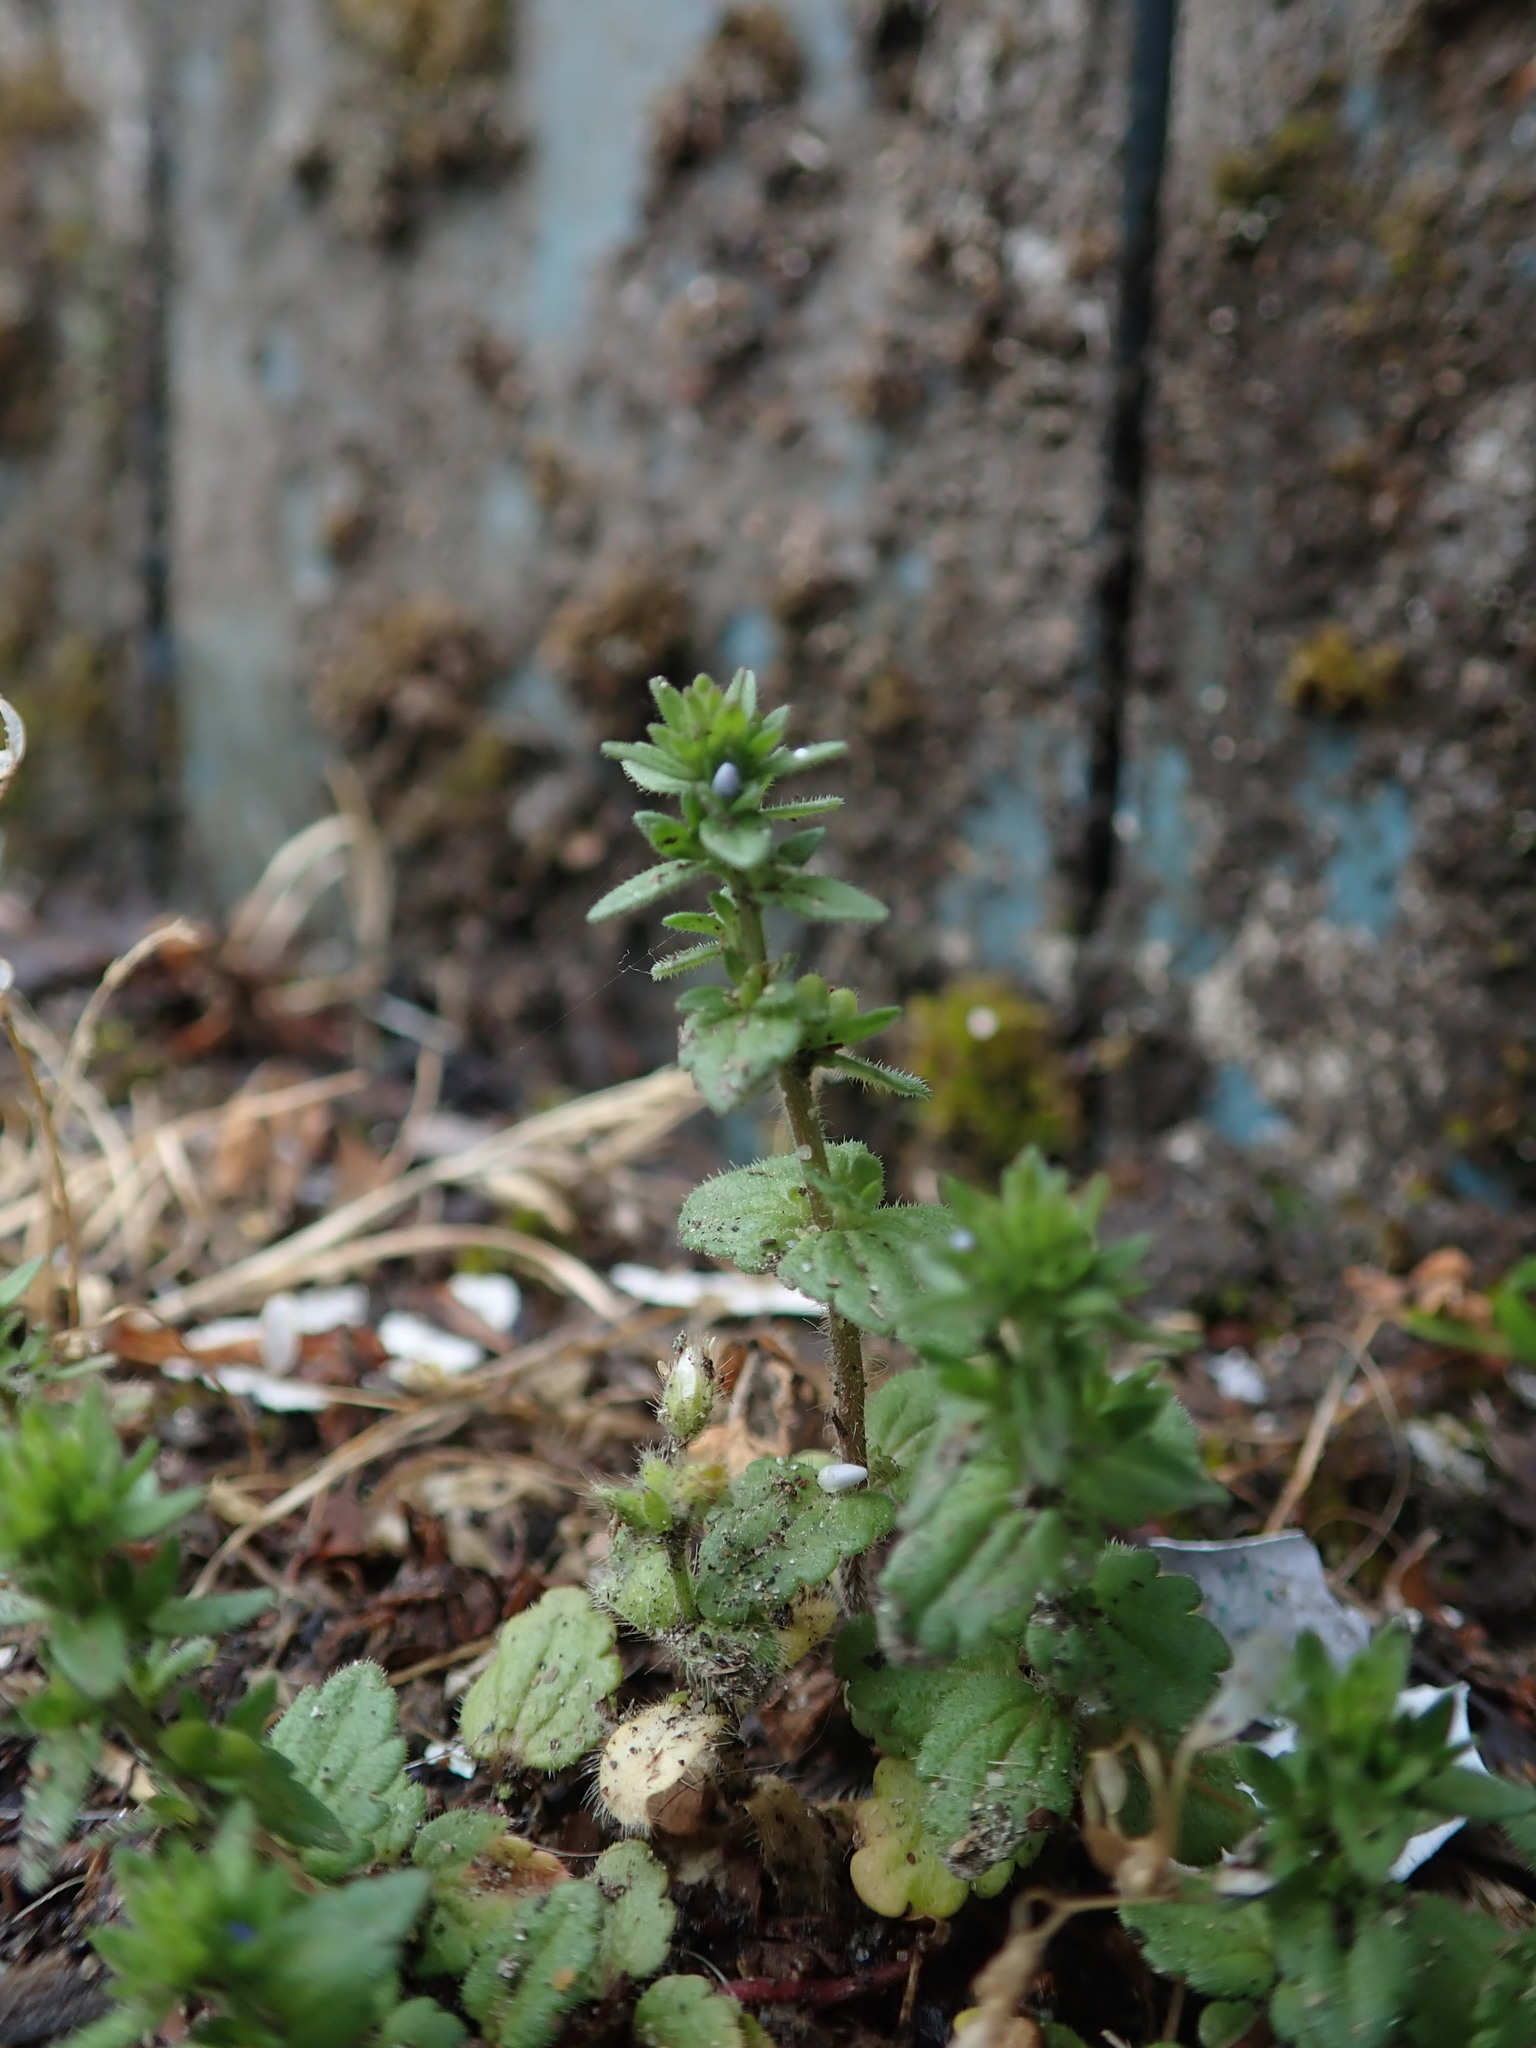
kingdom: Plantae
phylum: Tracheophyta
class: Magnoliopsida
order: Lamiales
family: Plantaginaceae
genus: Veronica
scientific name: Veronica arvensis
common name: Corn speedwell
